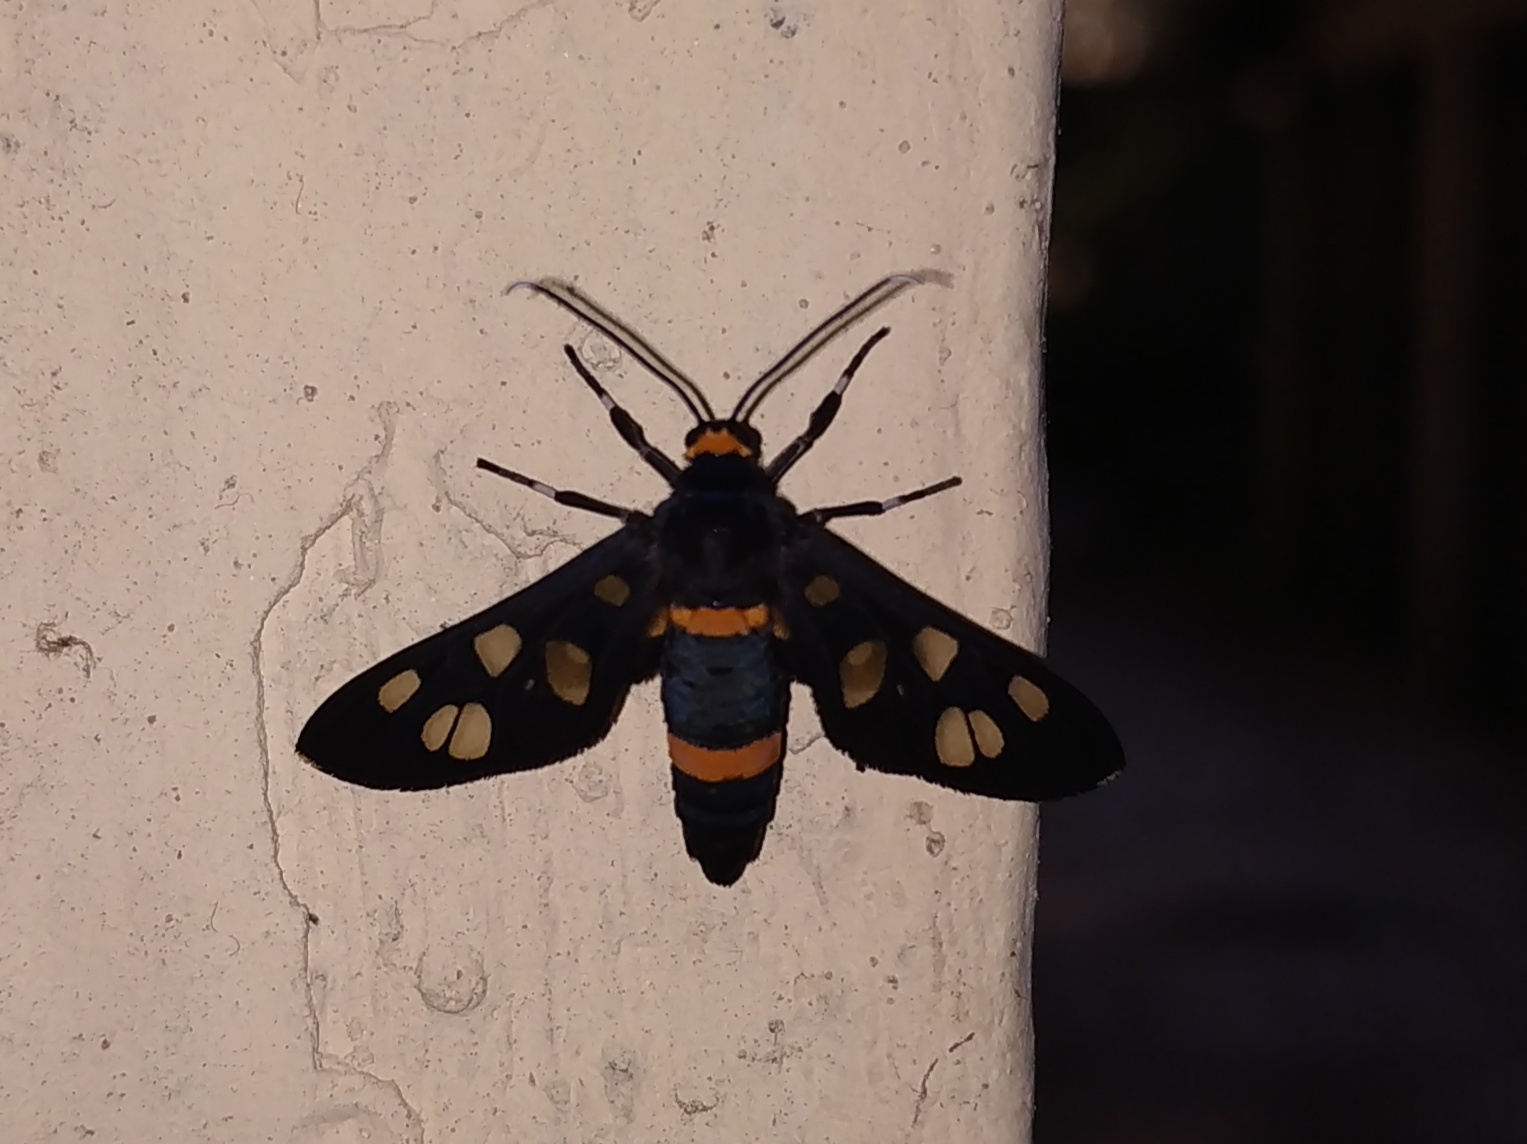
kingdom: Animalia
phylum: Arthropoda
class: Insecta
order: Lepidoptera
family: Erebidae
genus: Syntomoides
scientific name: Syntomoides imaon
